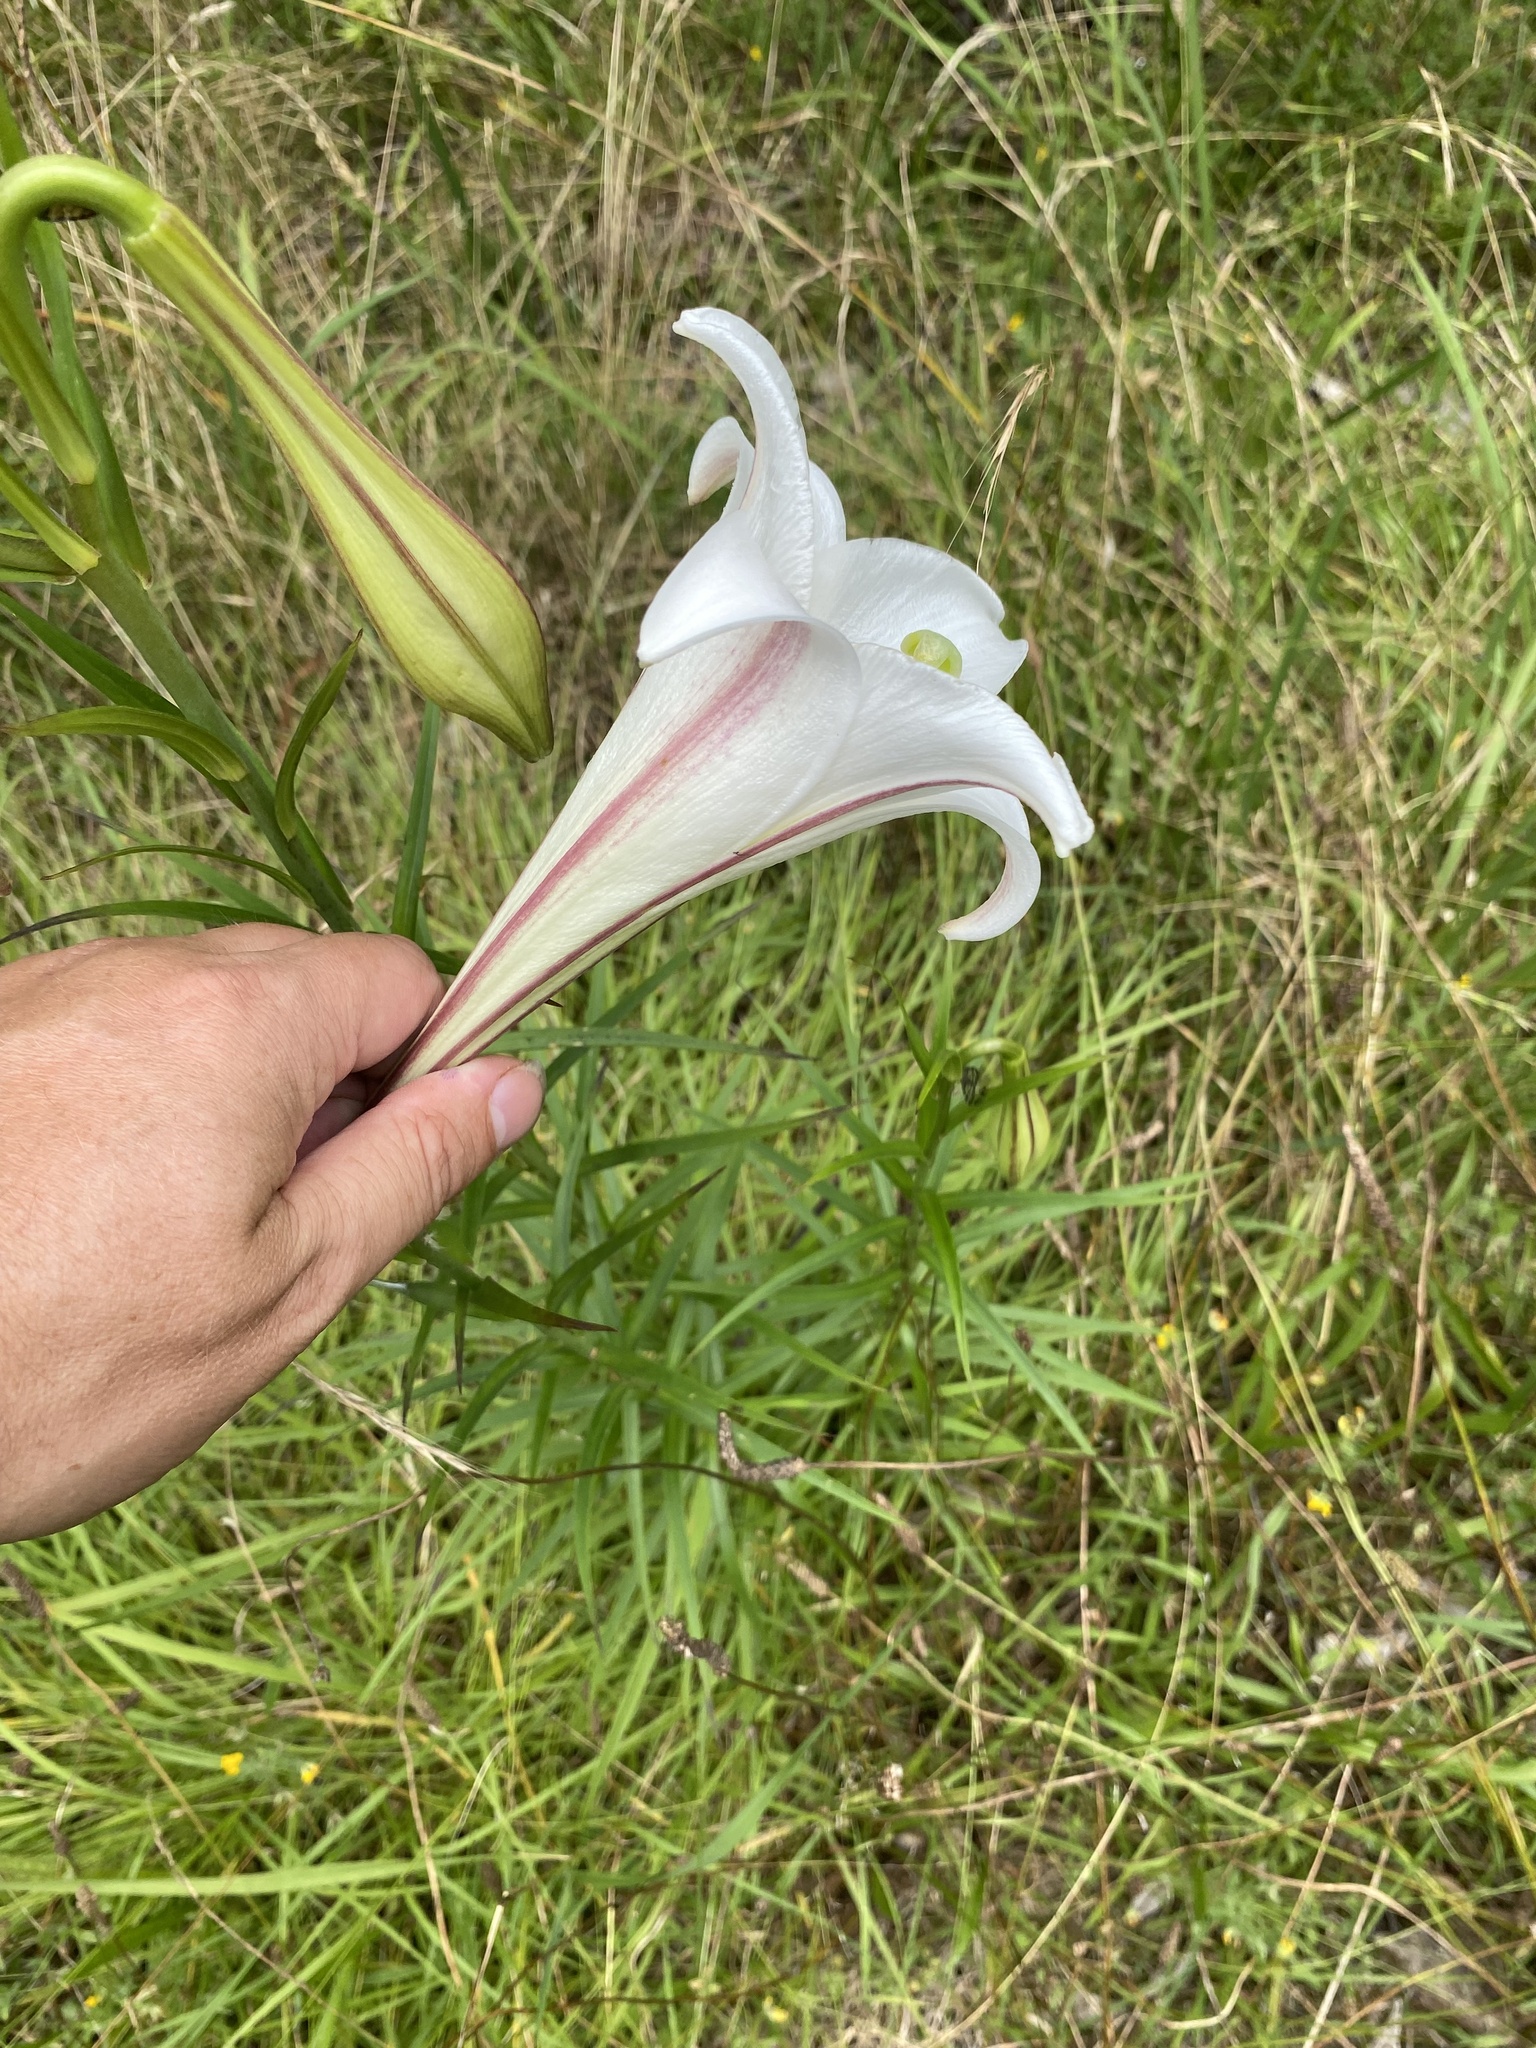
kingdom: Plantae
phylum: Tracheophyta
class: Liliopsida
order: Liliales
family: Liliaceae
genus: Lilium
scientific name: Lilium formosanum
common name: Formosa lily
